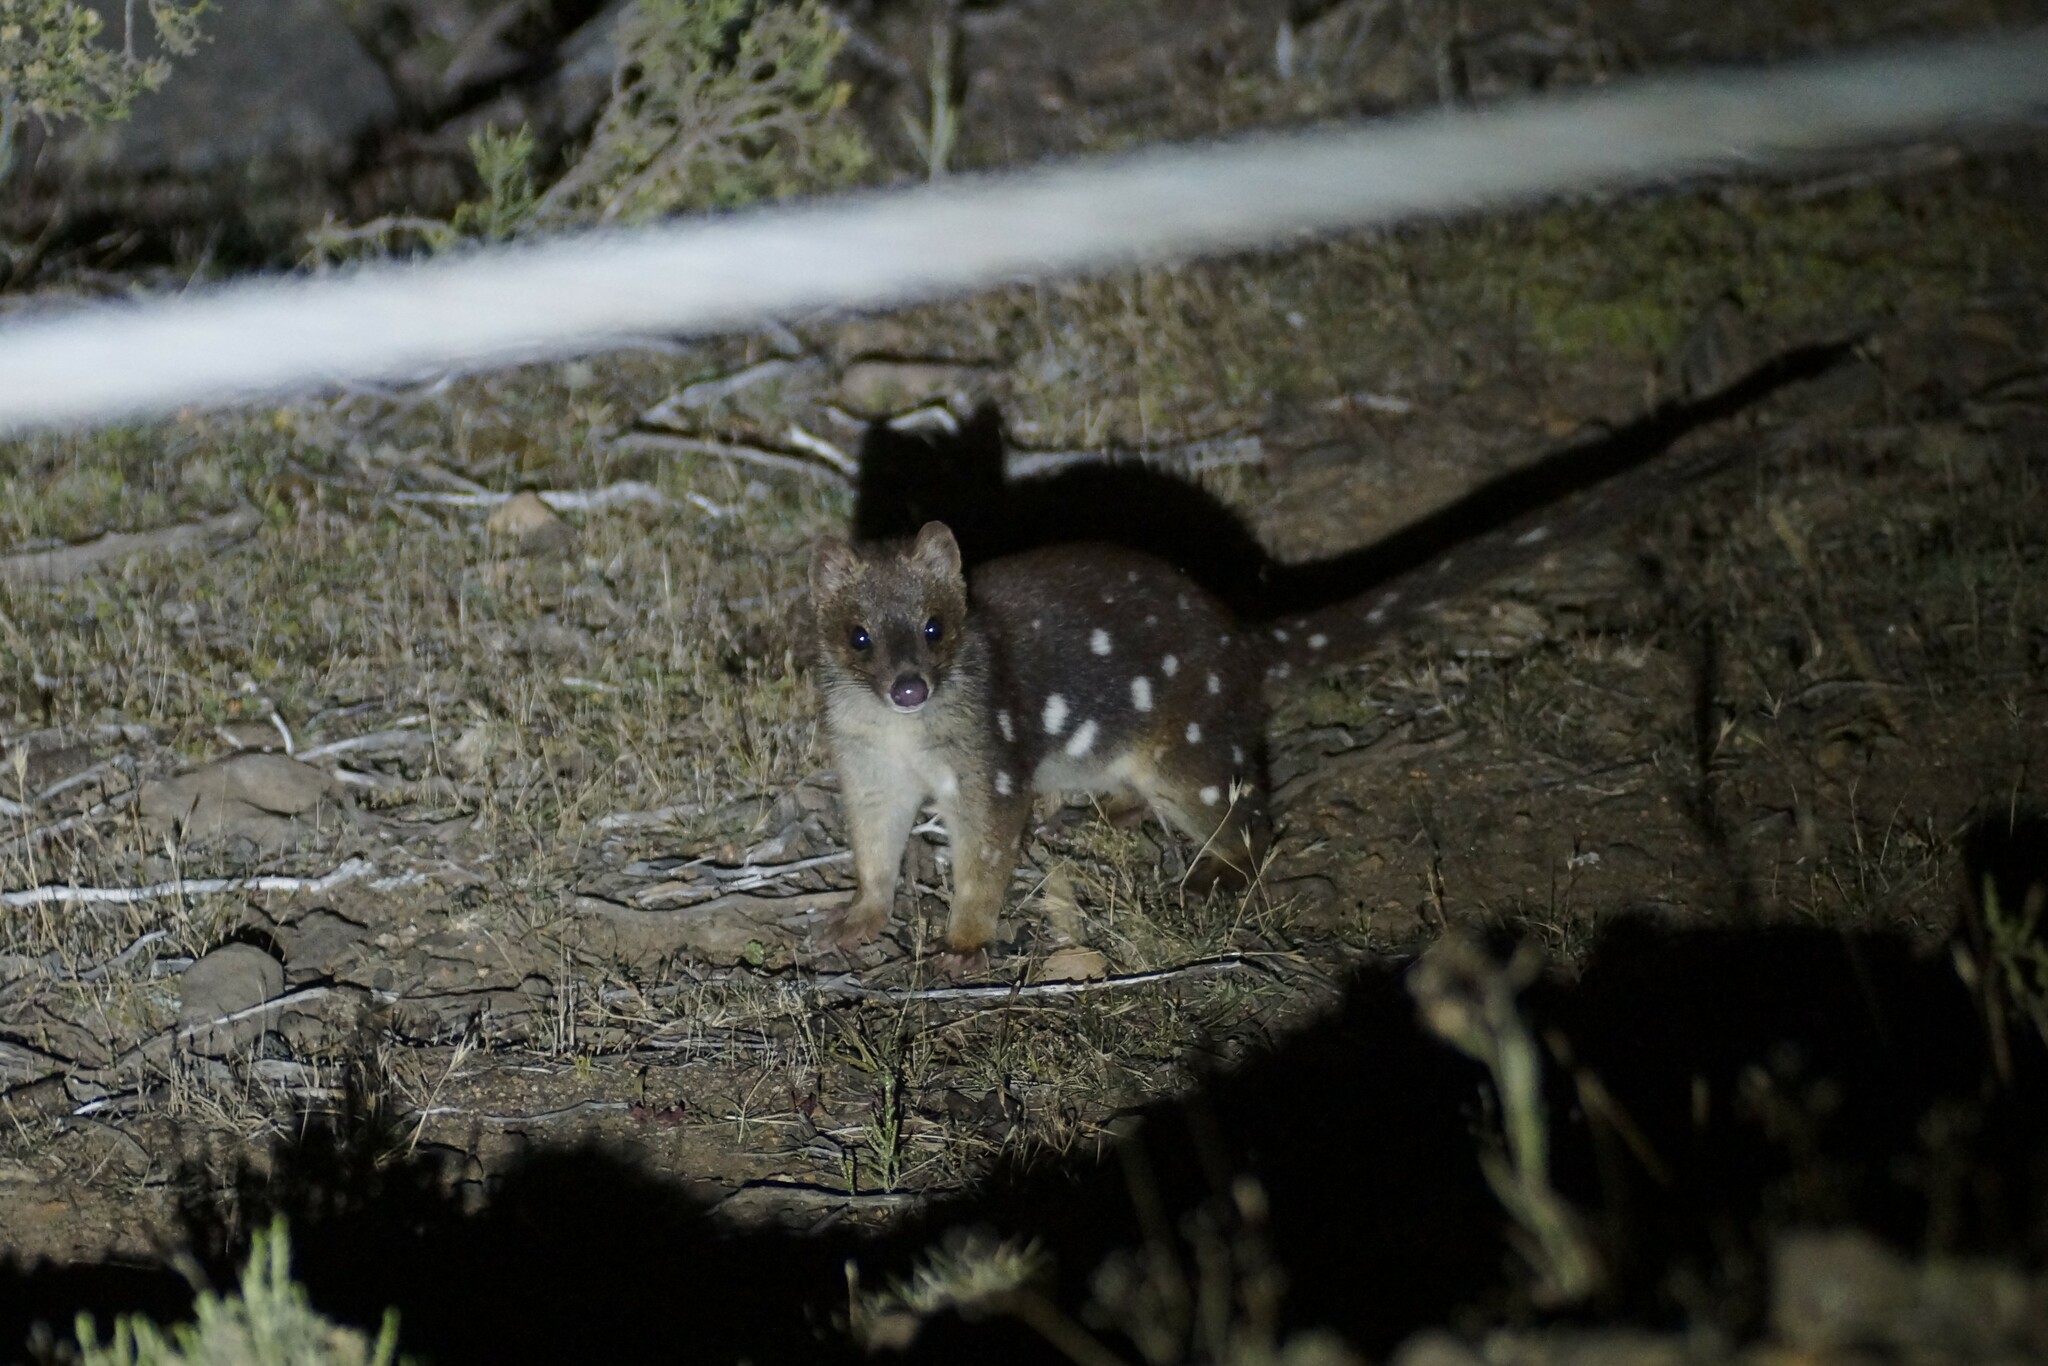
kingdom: Animalia
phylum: Chordata
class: Mammalia
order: Dasyuromorphia
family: Dasyuridae
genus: Dasyurus
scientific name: Dasyurus maculatus
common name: Tiger quoll
